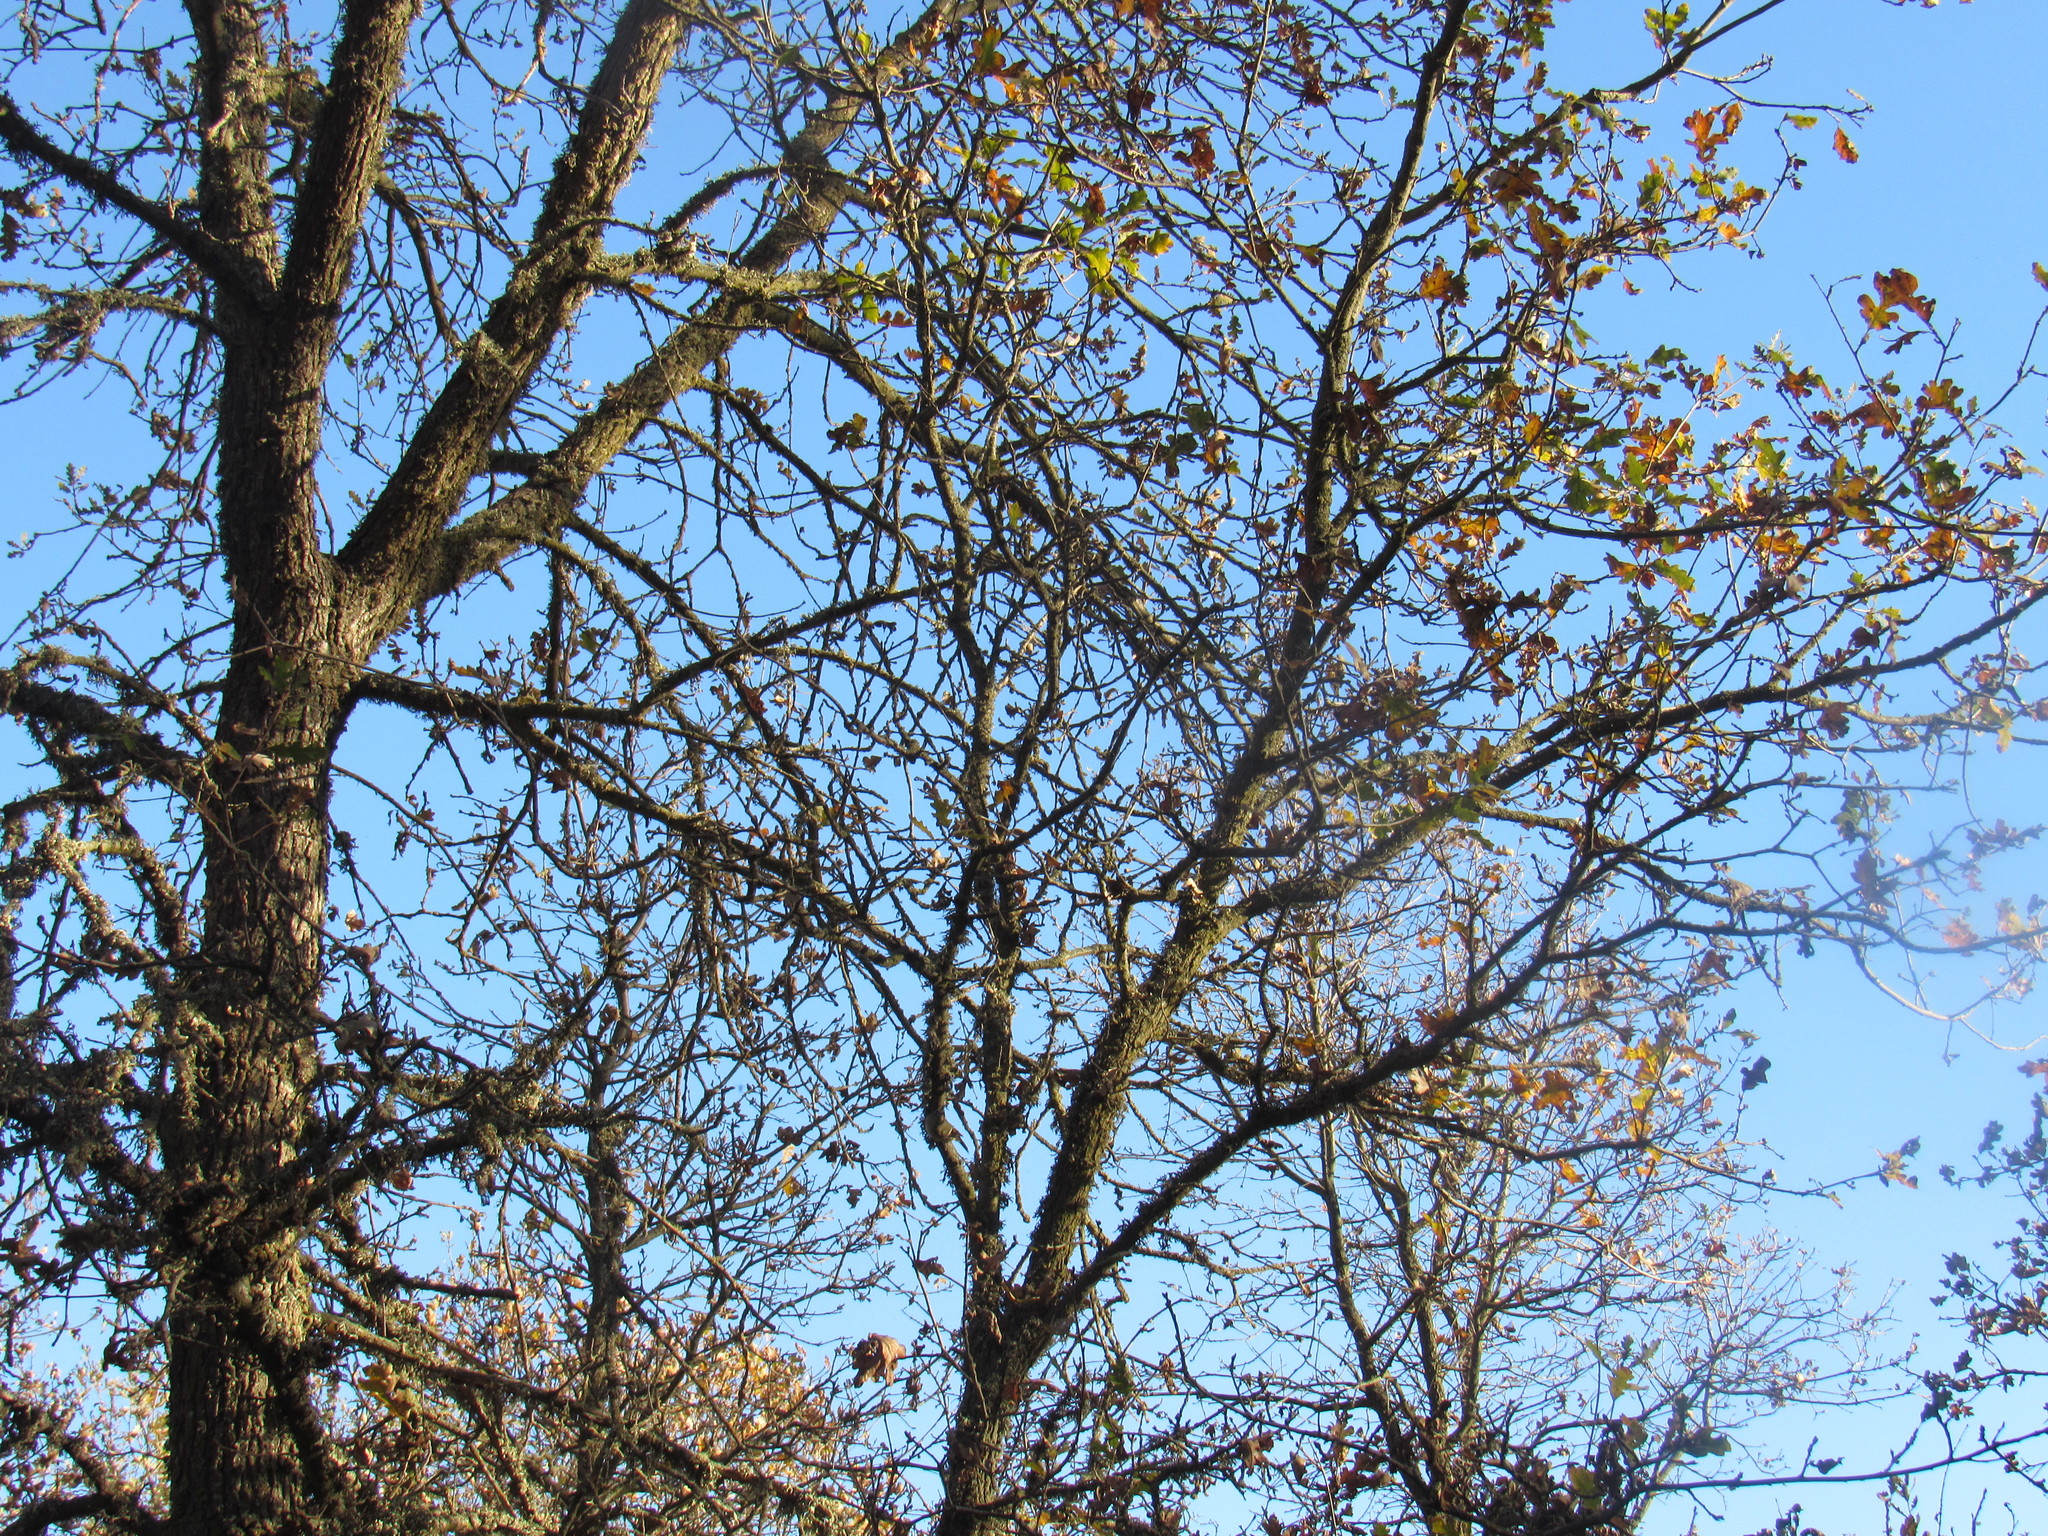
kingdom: Plantae
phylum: Tracheophyta
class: Magnoliopsida
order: Fagales
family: Fagaceae
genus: Quercus
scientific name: Quercus lobata
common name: Valley oak
